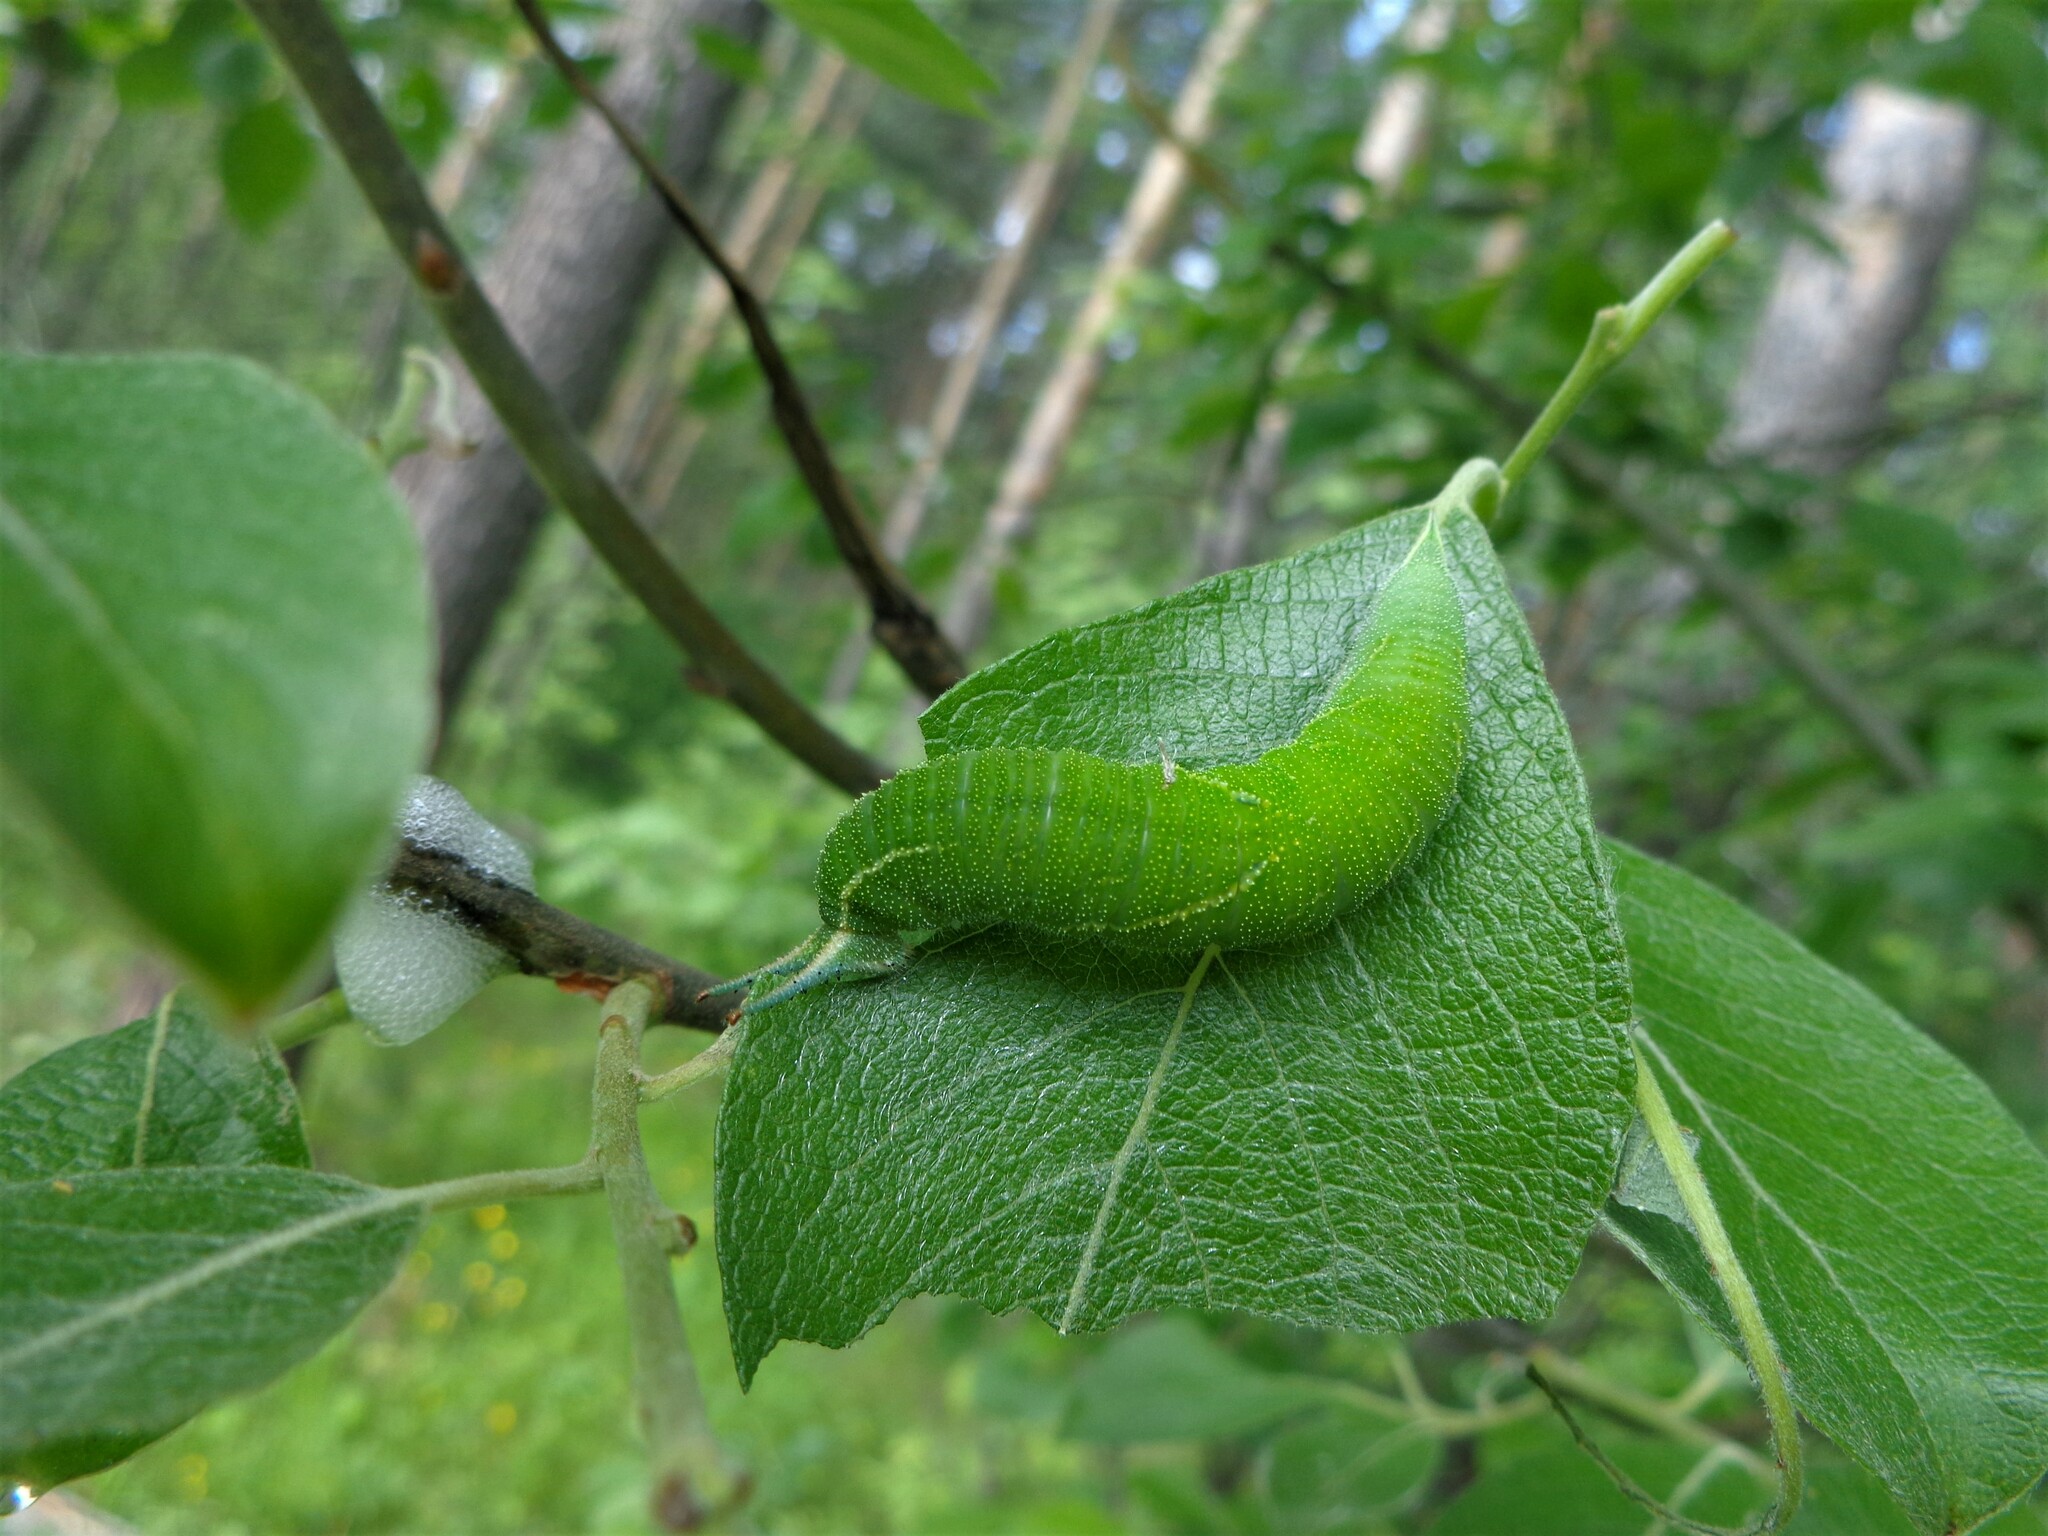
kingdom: Animalia
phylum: Arthropoda
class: Insecta
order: Lepidoptera
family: Nymphalidae
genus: Apatura
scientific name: Apatura iris
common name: Purple emperor
